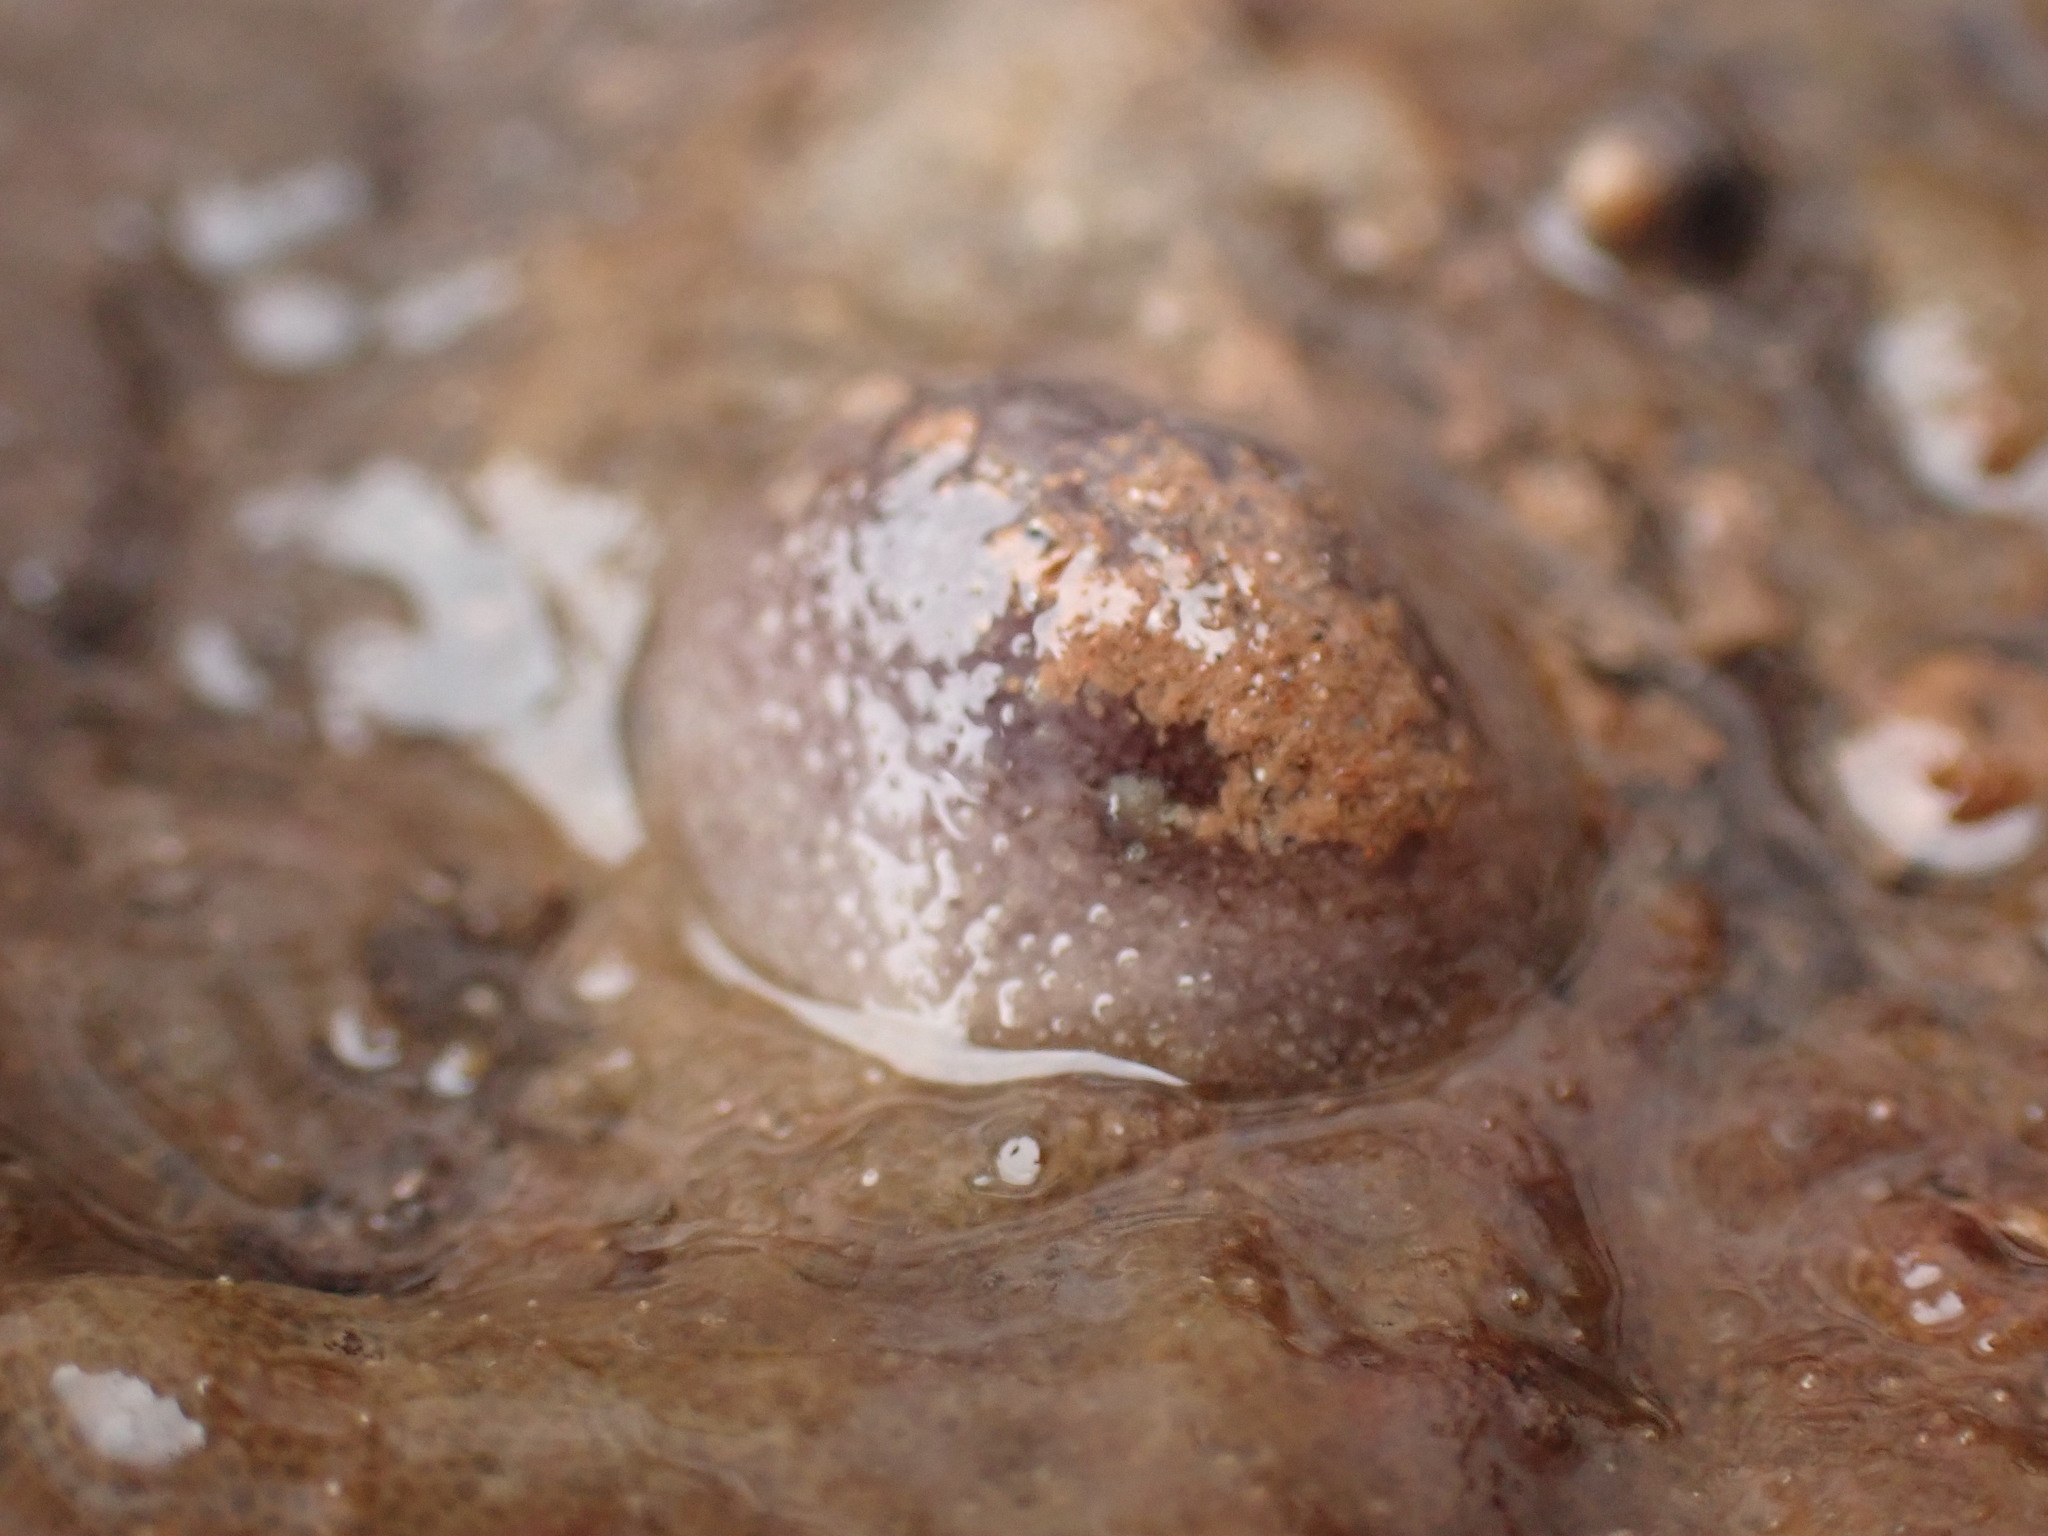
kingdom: Animalia
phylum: Mollusca
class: Gastropoda
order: Nudibranchia
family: Onchidorididae
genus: Onchidoris
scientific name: Onchidoris bilamellata
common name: Barnacle-eating onchidoris
